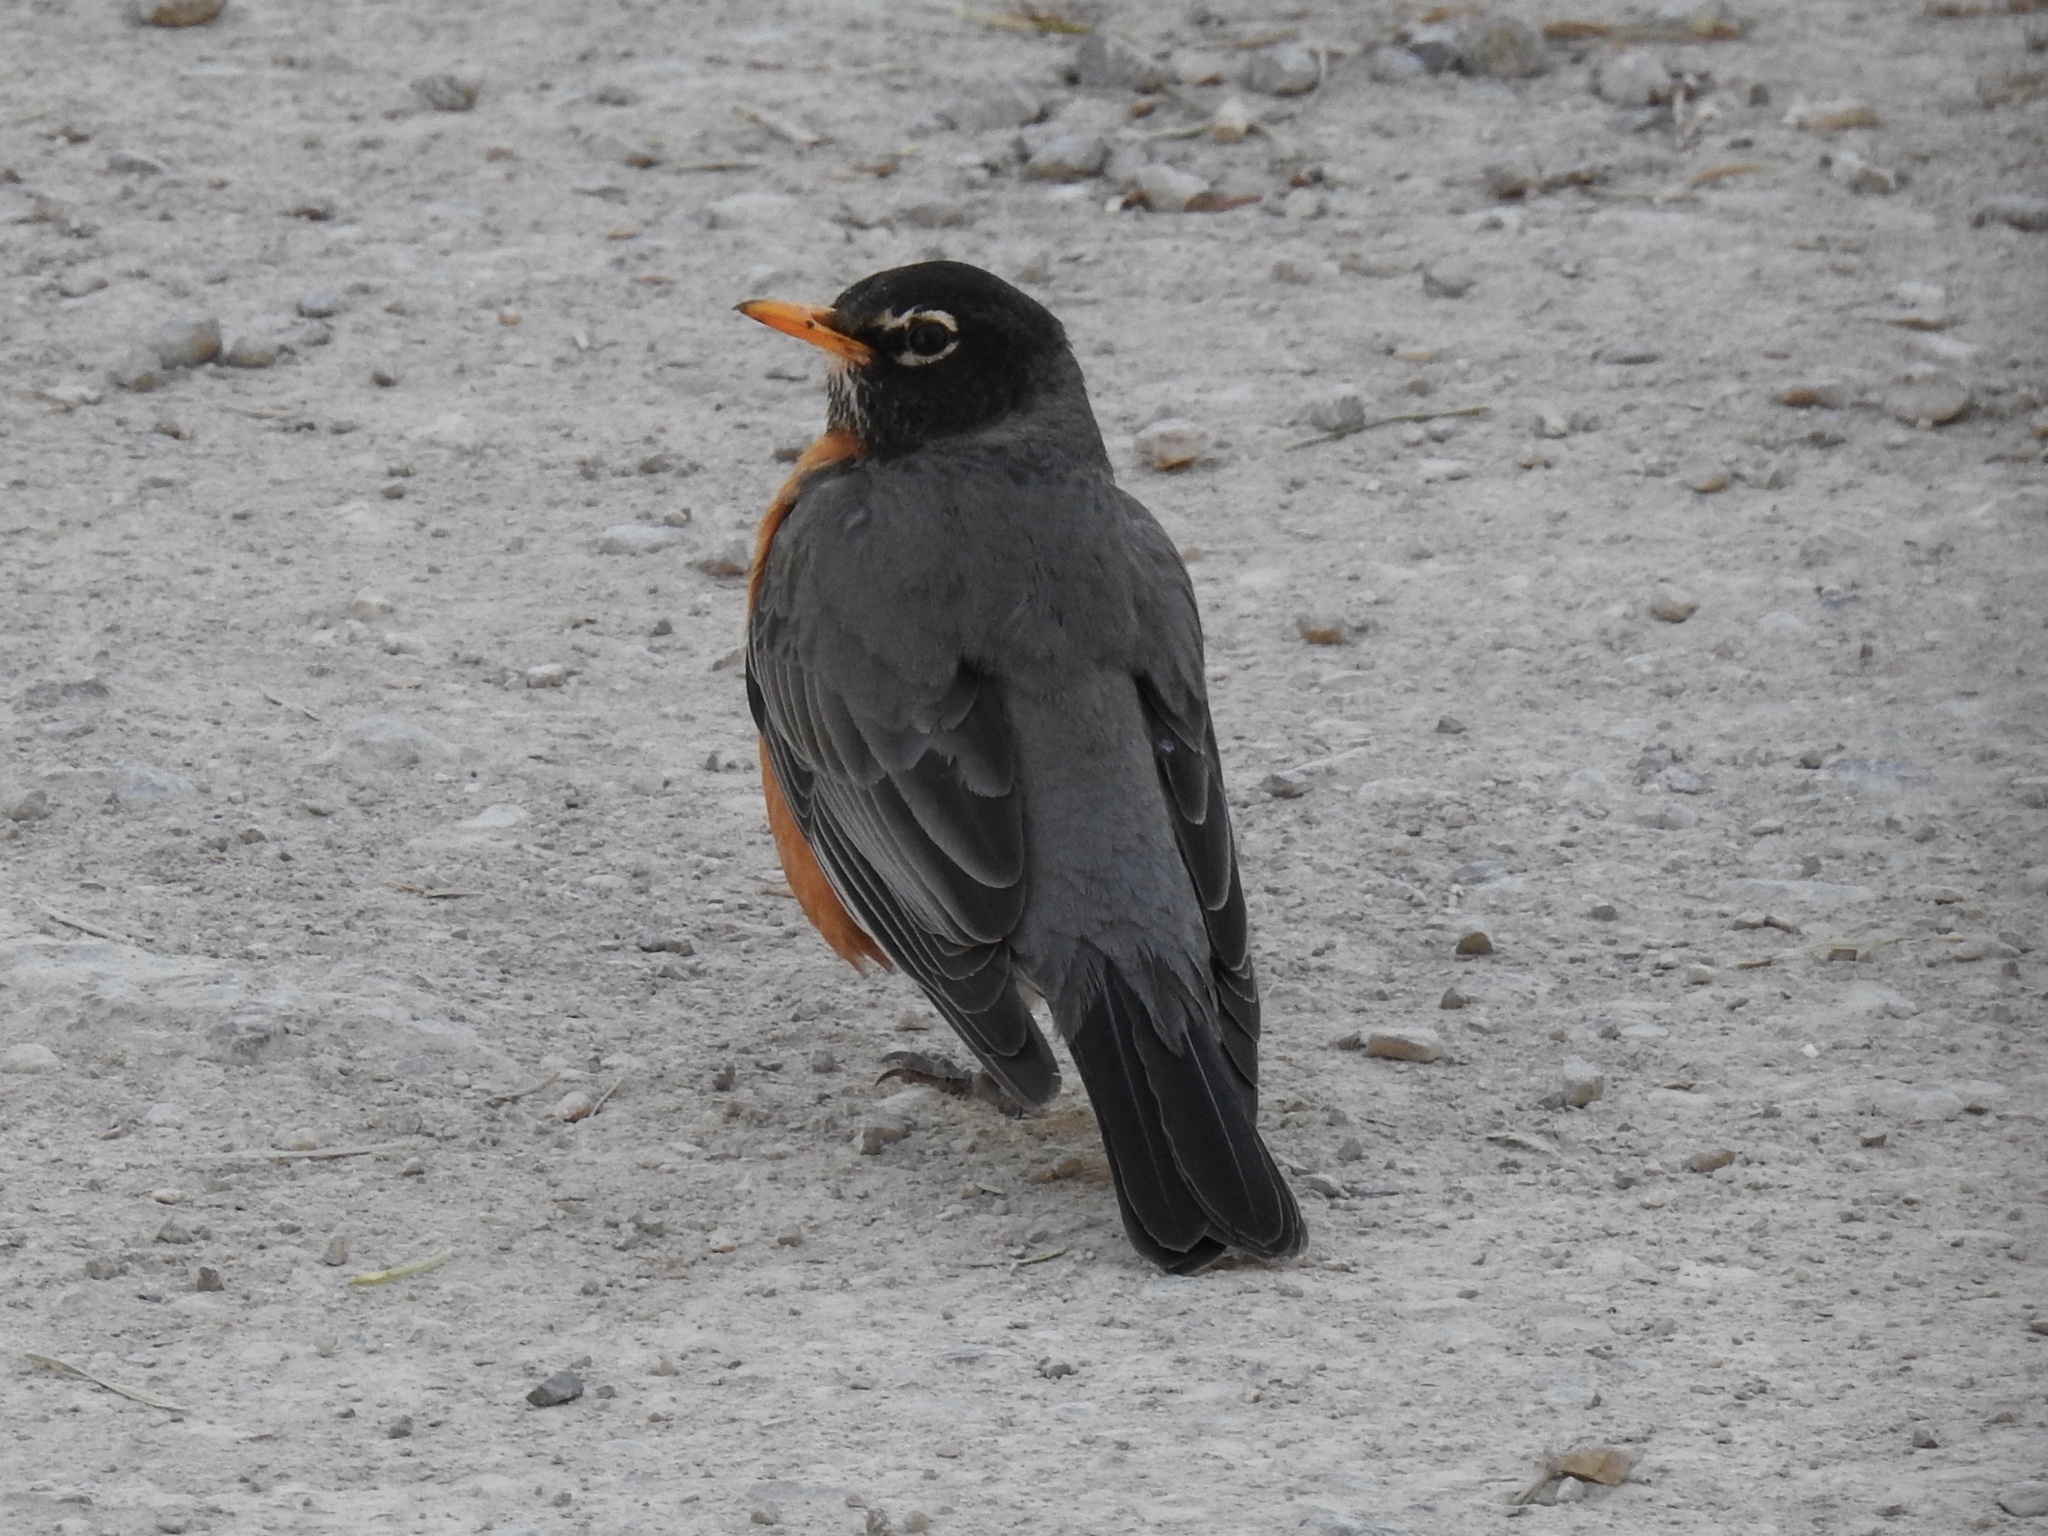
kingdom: Animalia
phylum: Chordata
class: Aves
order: Passeriformes
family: Turdidae
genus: Turdus
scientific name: Turdus migratorius
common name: American robin
